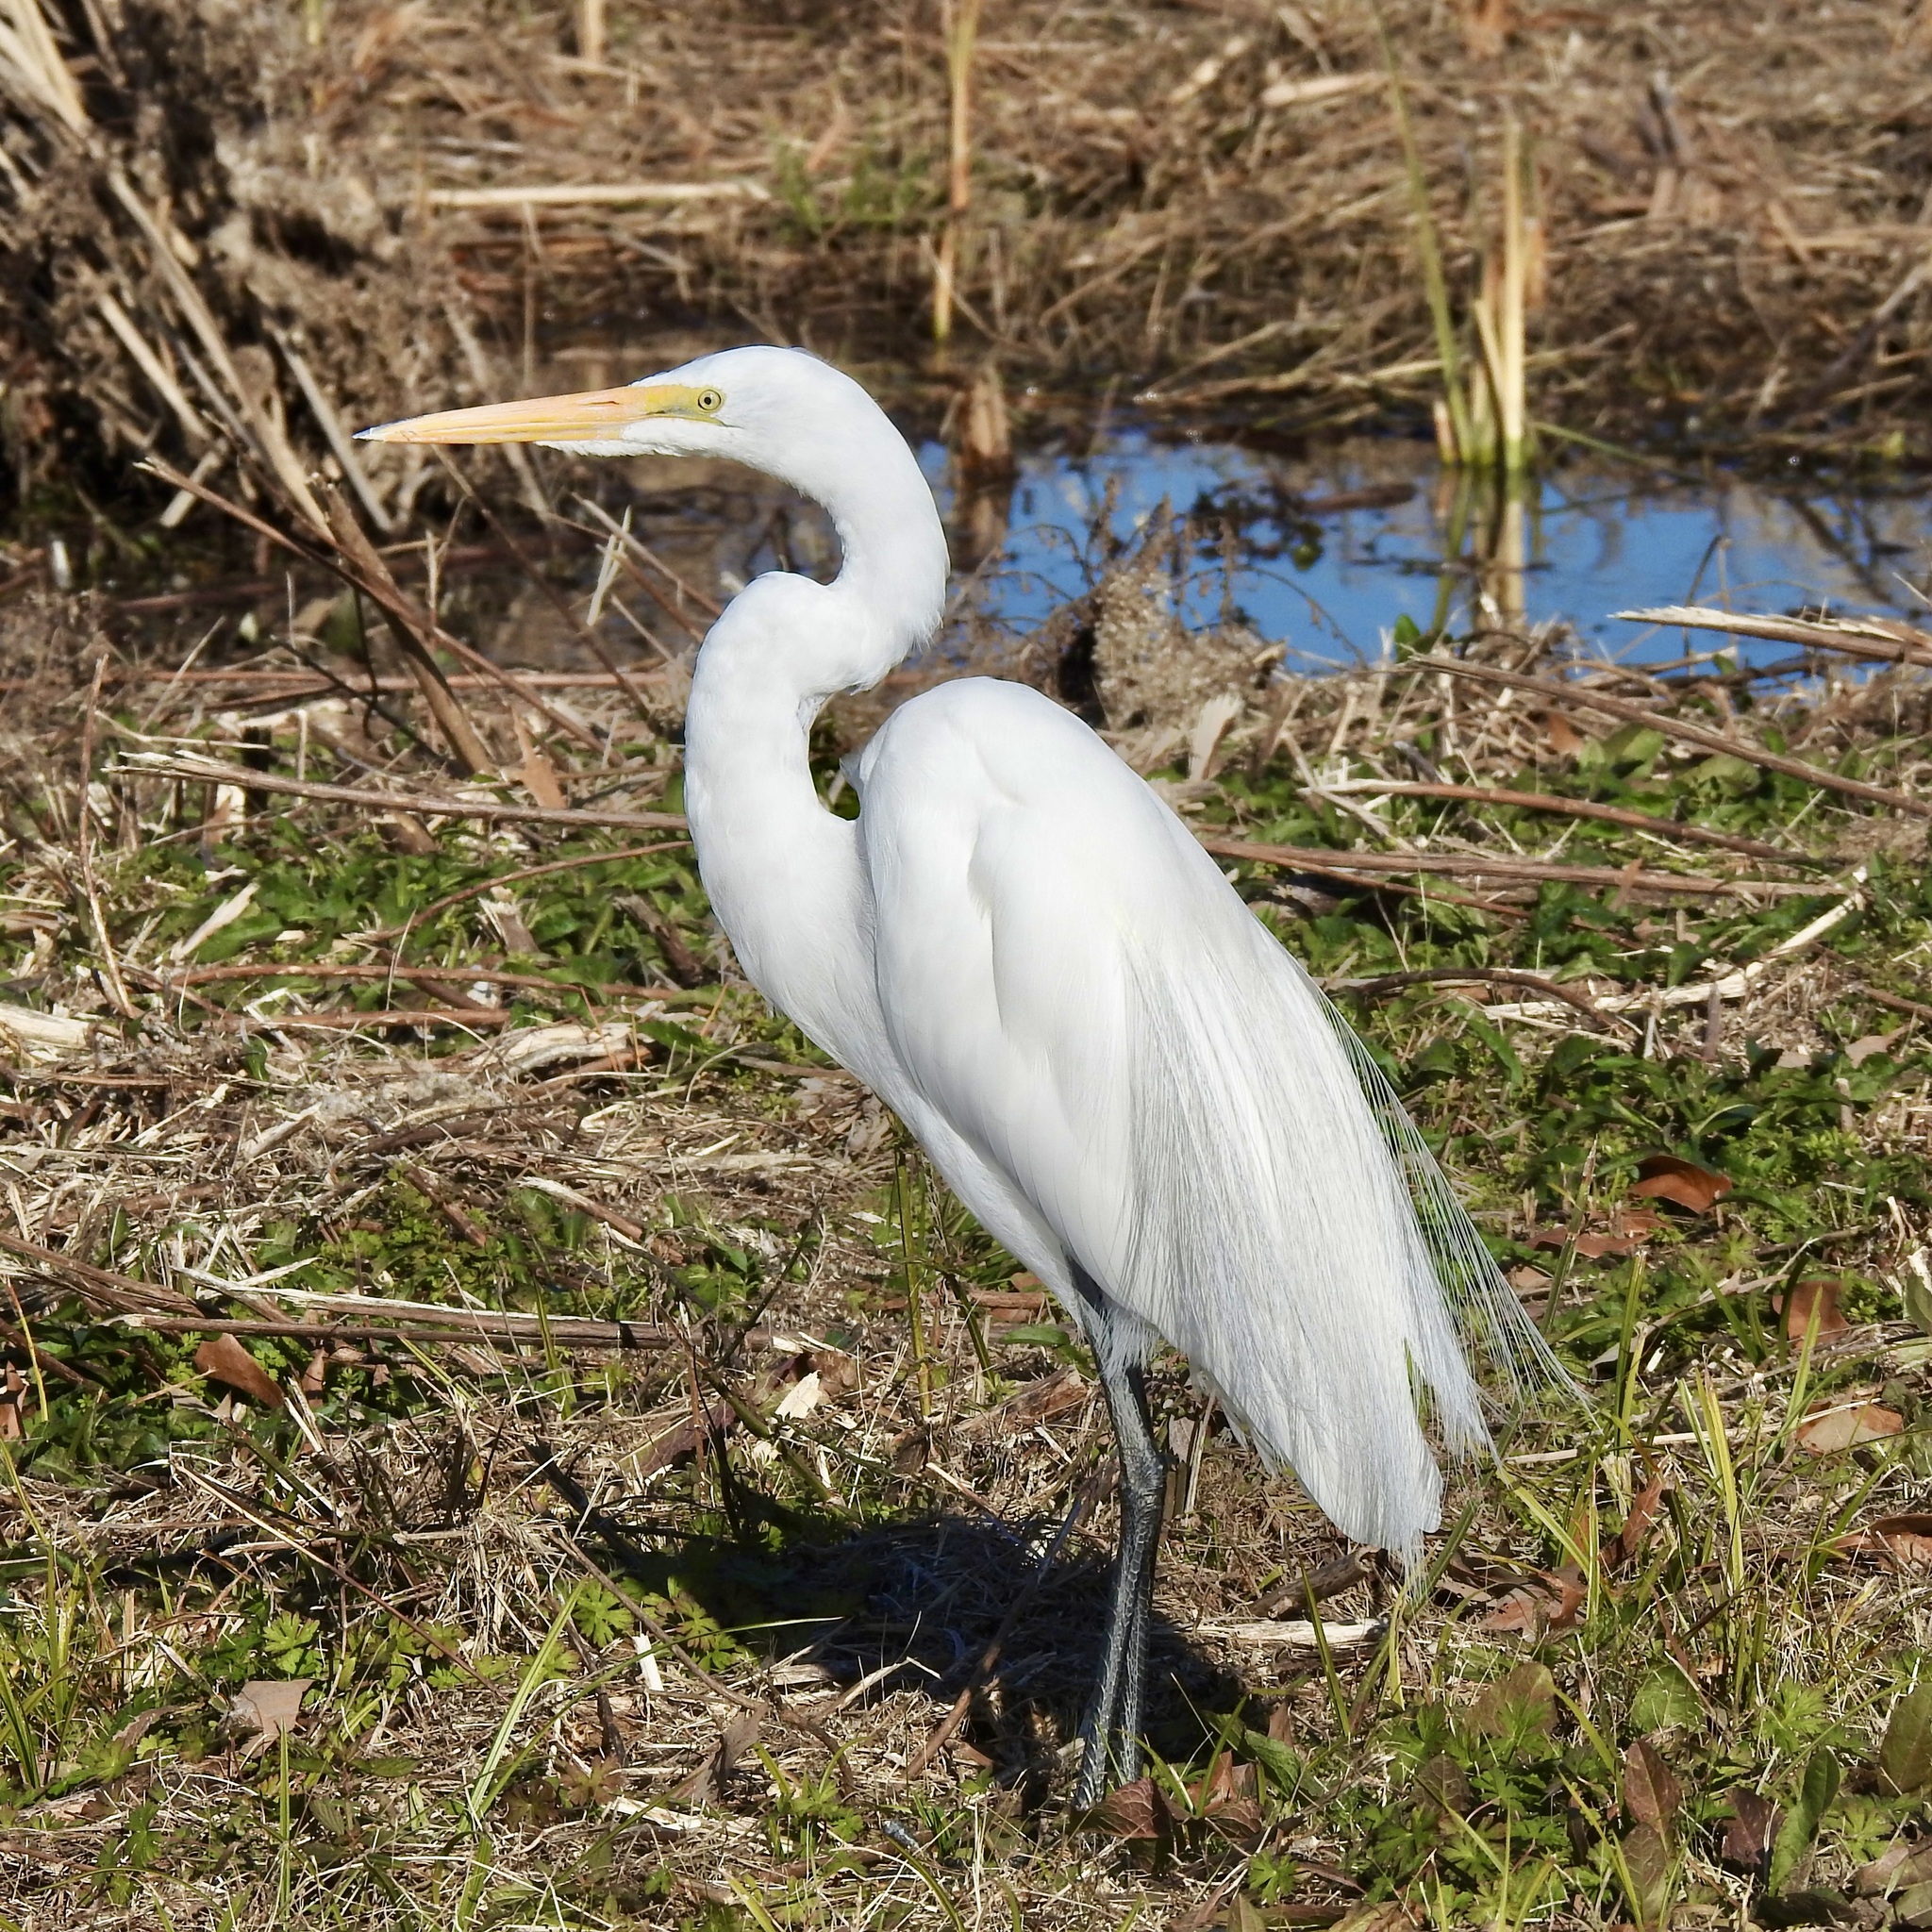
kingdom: Animalia
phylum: Chordata
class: Aves
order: Pelecaniformes
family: Ardeidae
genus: Ardea
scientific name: Ardea alba
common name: Great egret
